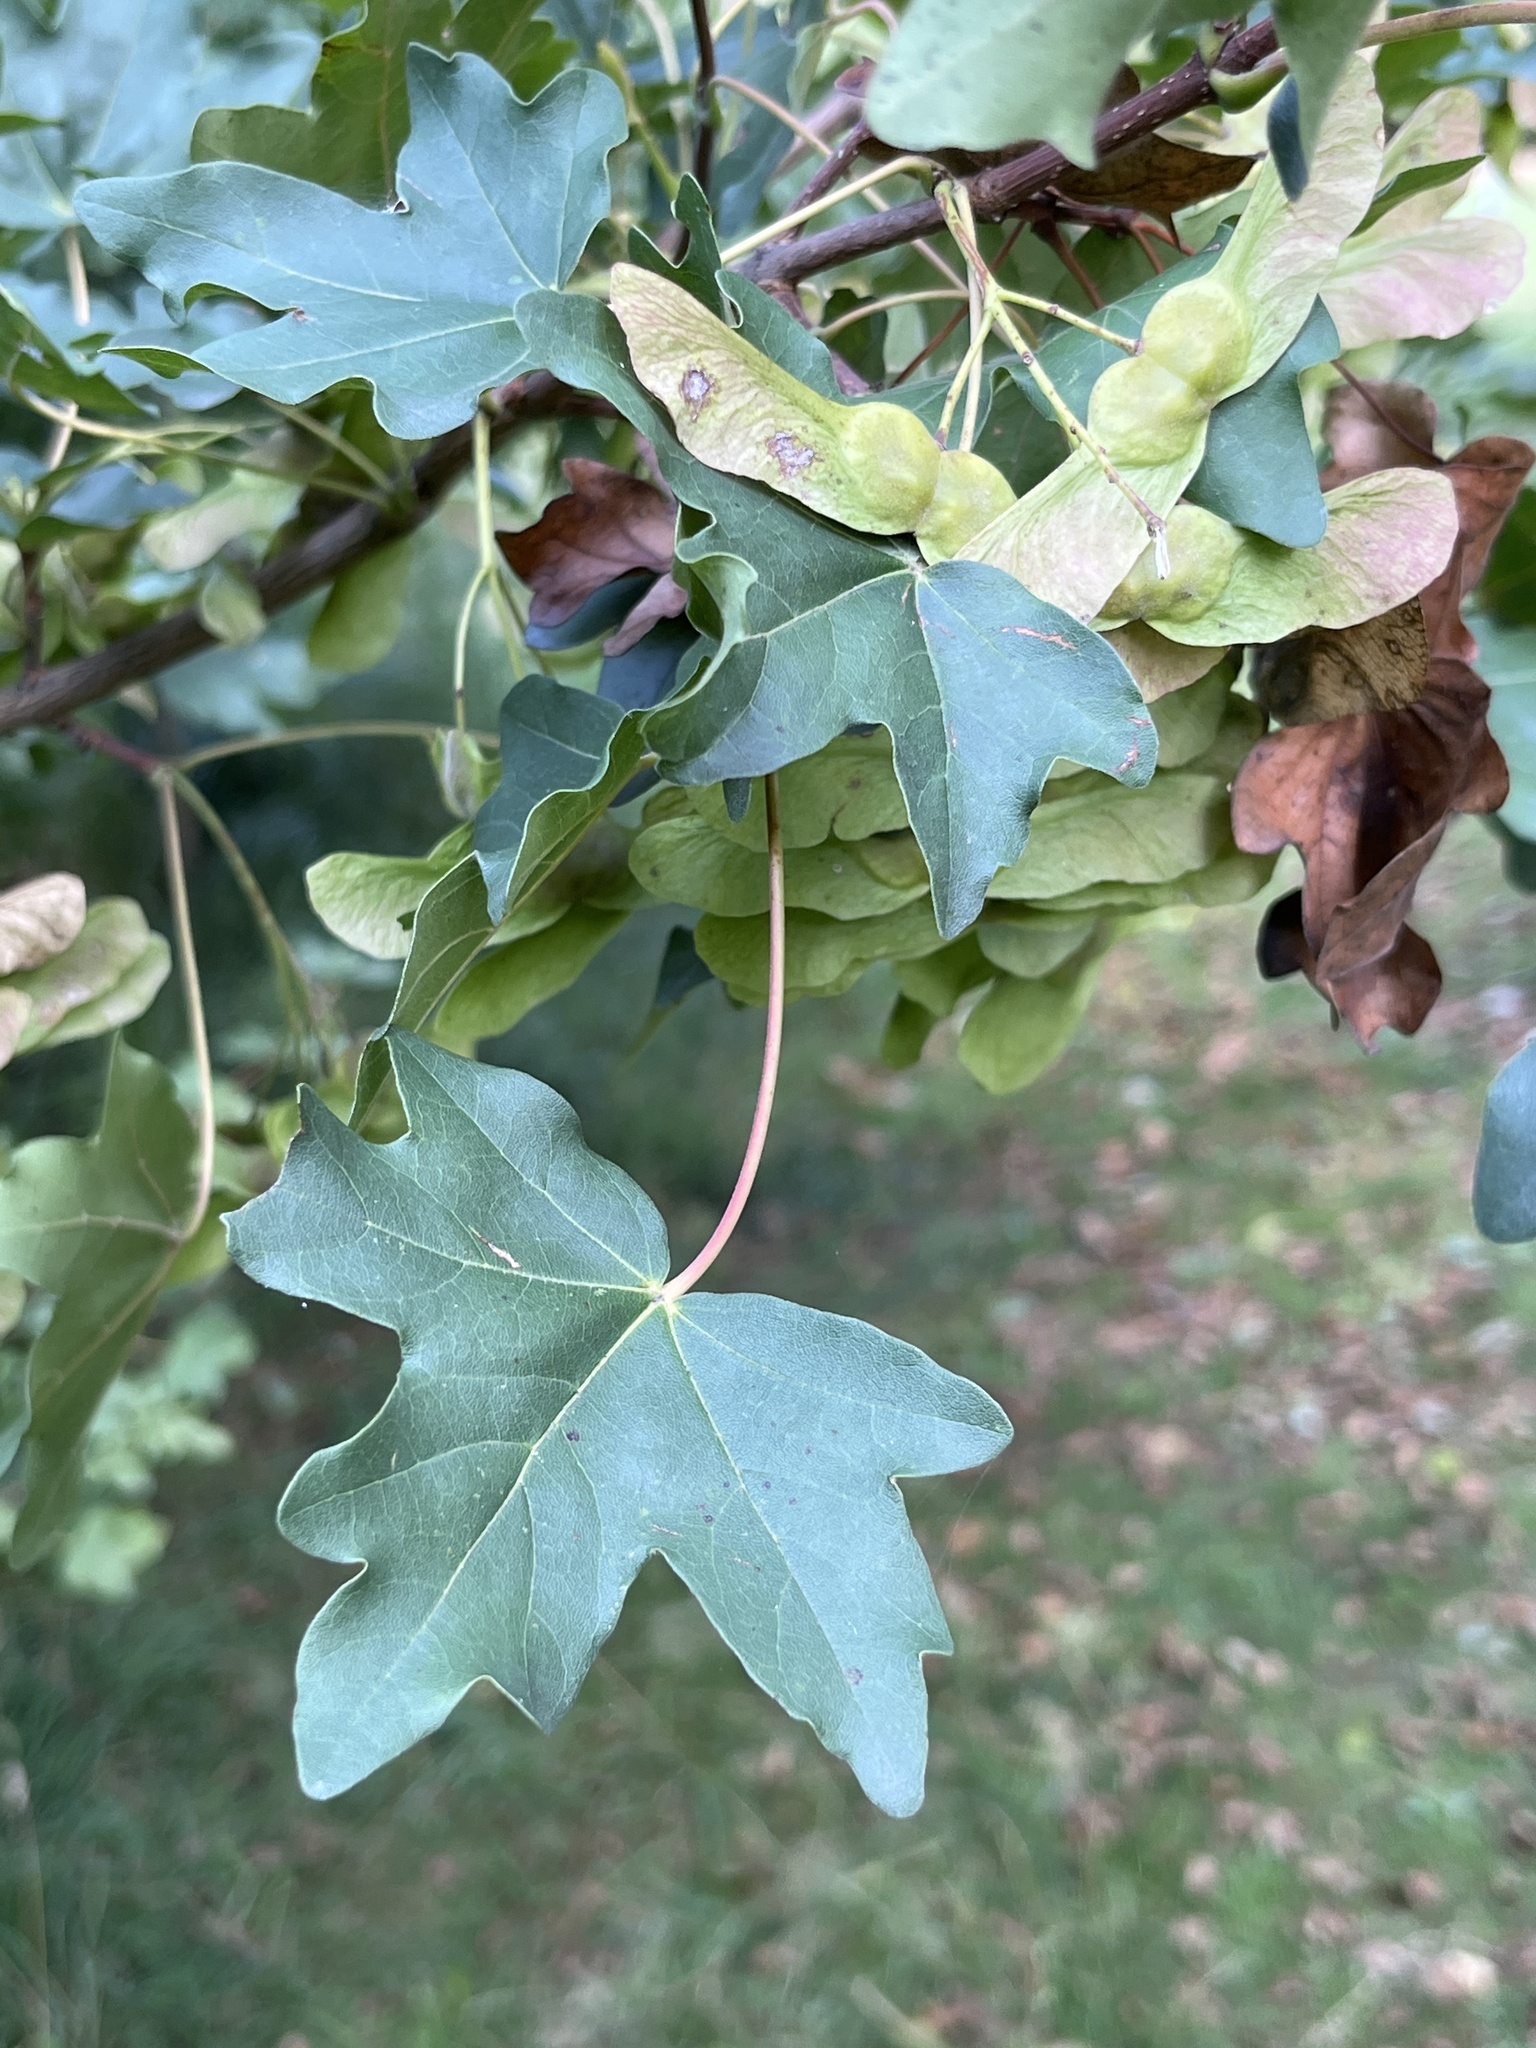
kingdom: Plantae
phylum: Tracheophyta
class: Magnoliopsida
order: Sapindales
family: Sapindaceae
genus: Acer
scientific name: Acer campestre
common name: Field maple
